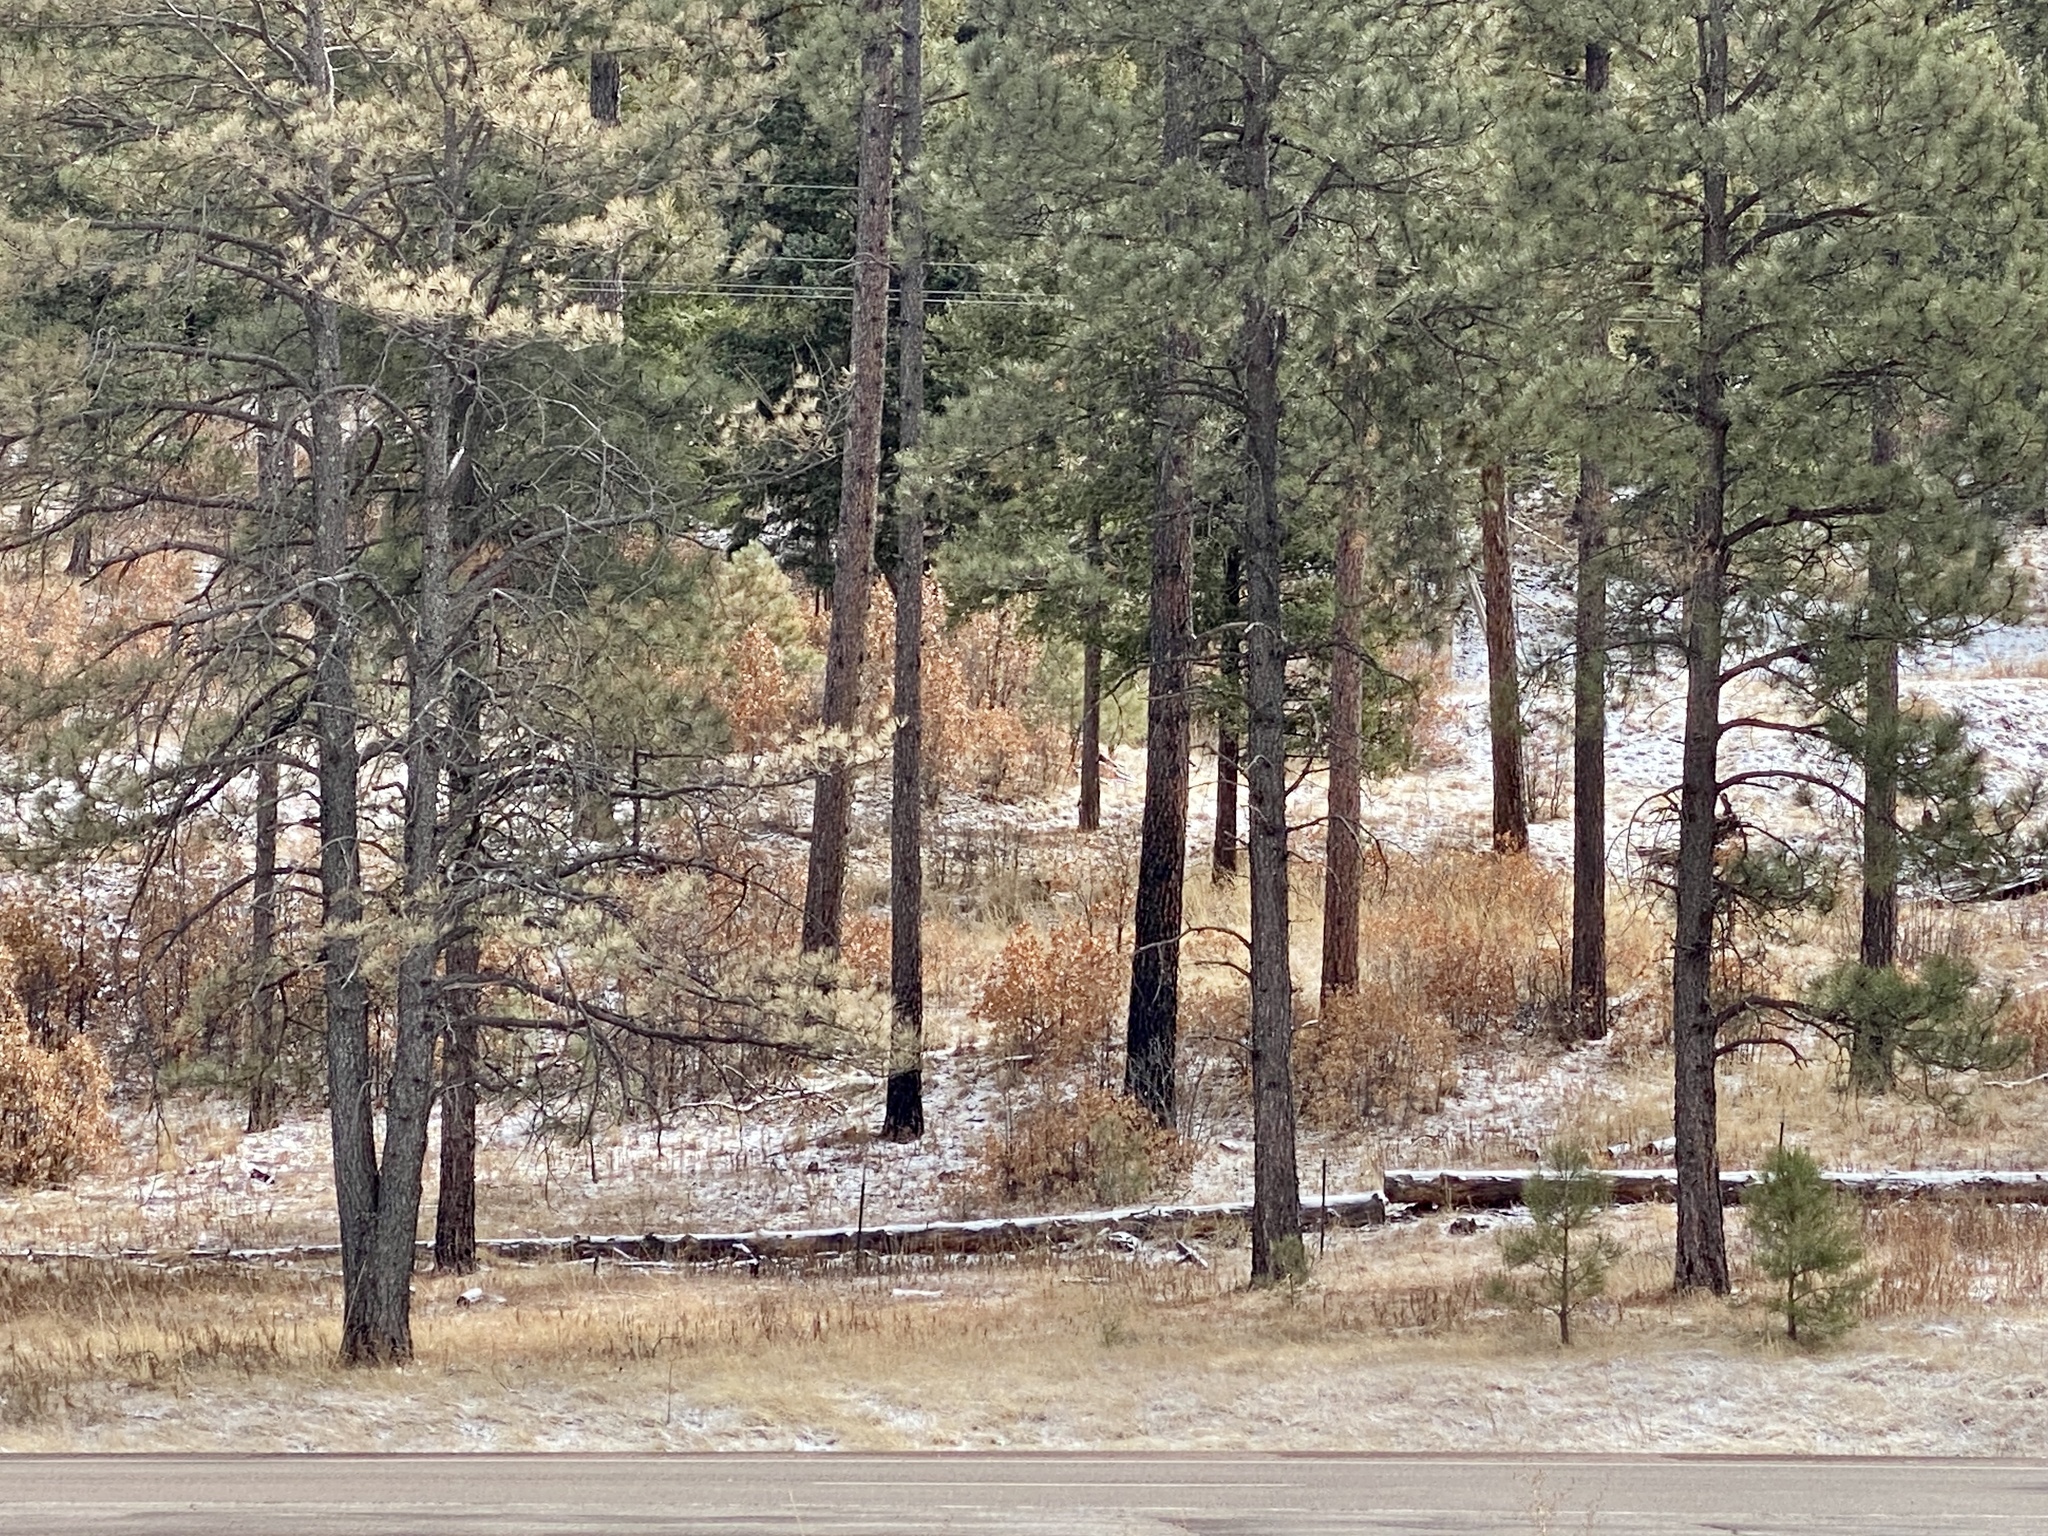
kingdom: Plantae
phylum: Tracheophyta
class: Pinopsida
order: Pinales
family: Pinaceae
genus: Pinus
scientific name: Pinus ponderosa
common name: Western yellow-pine
